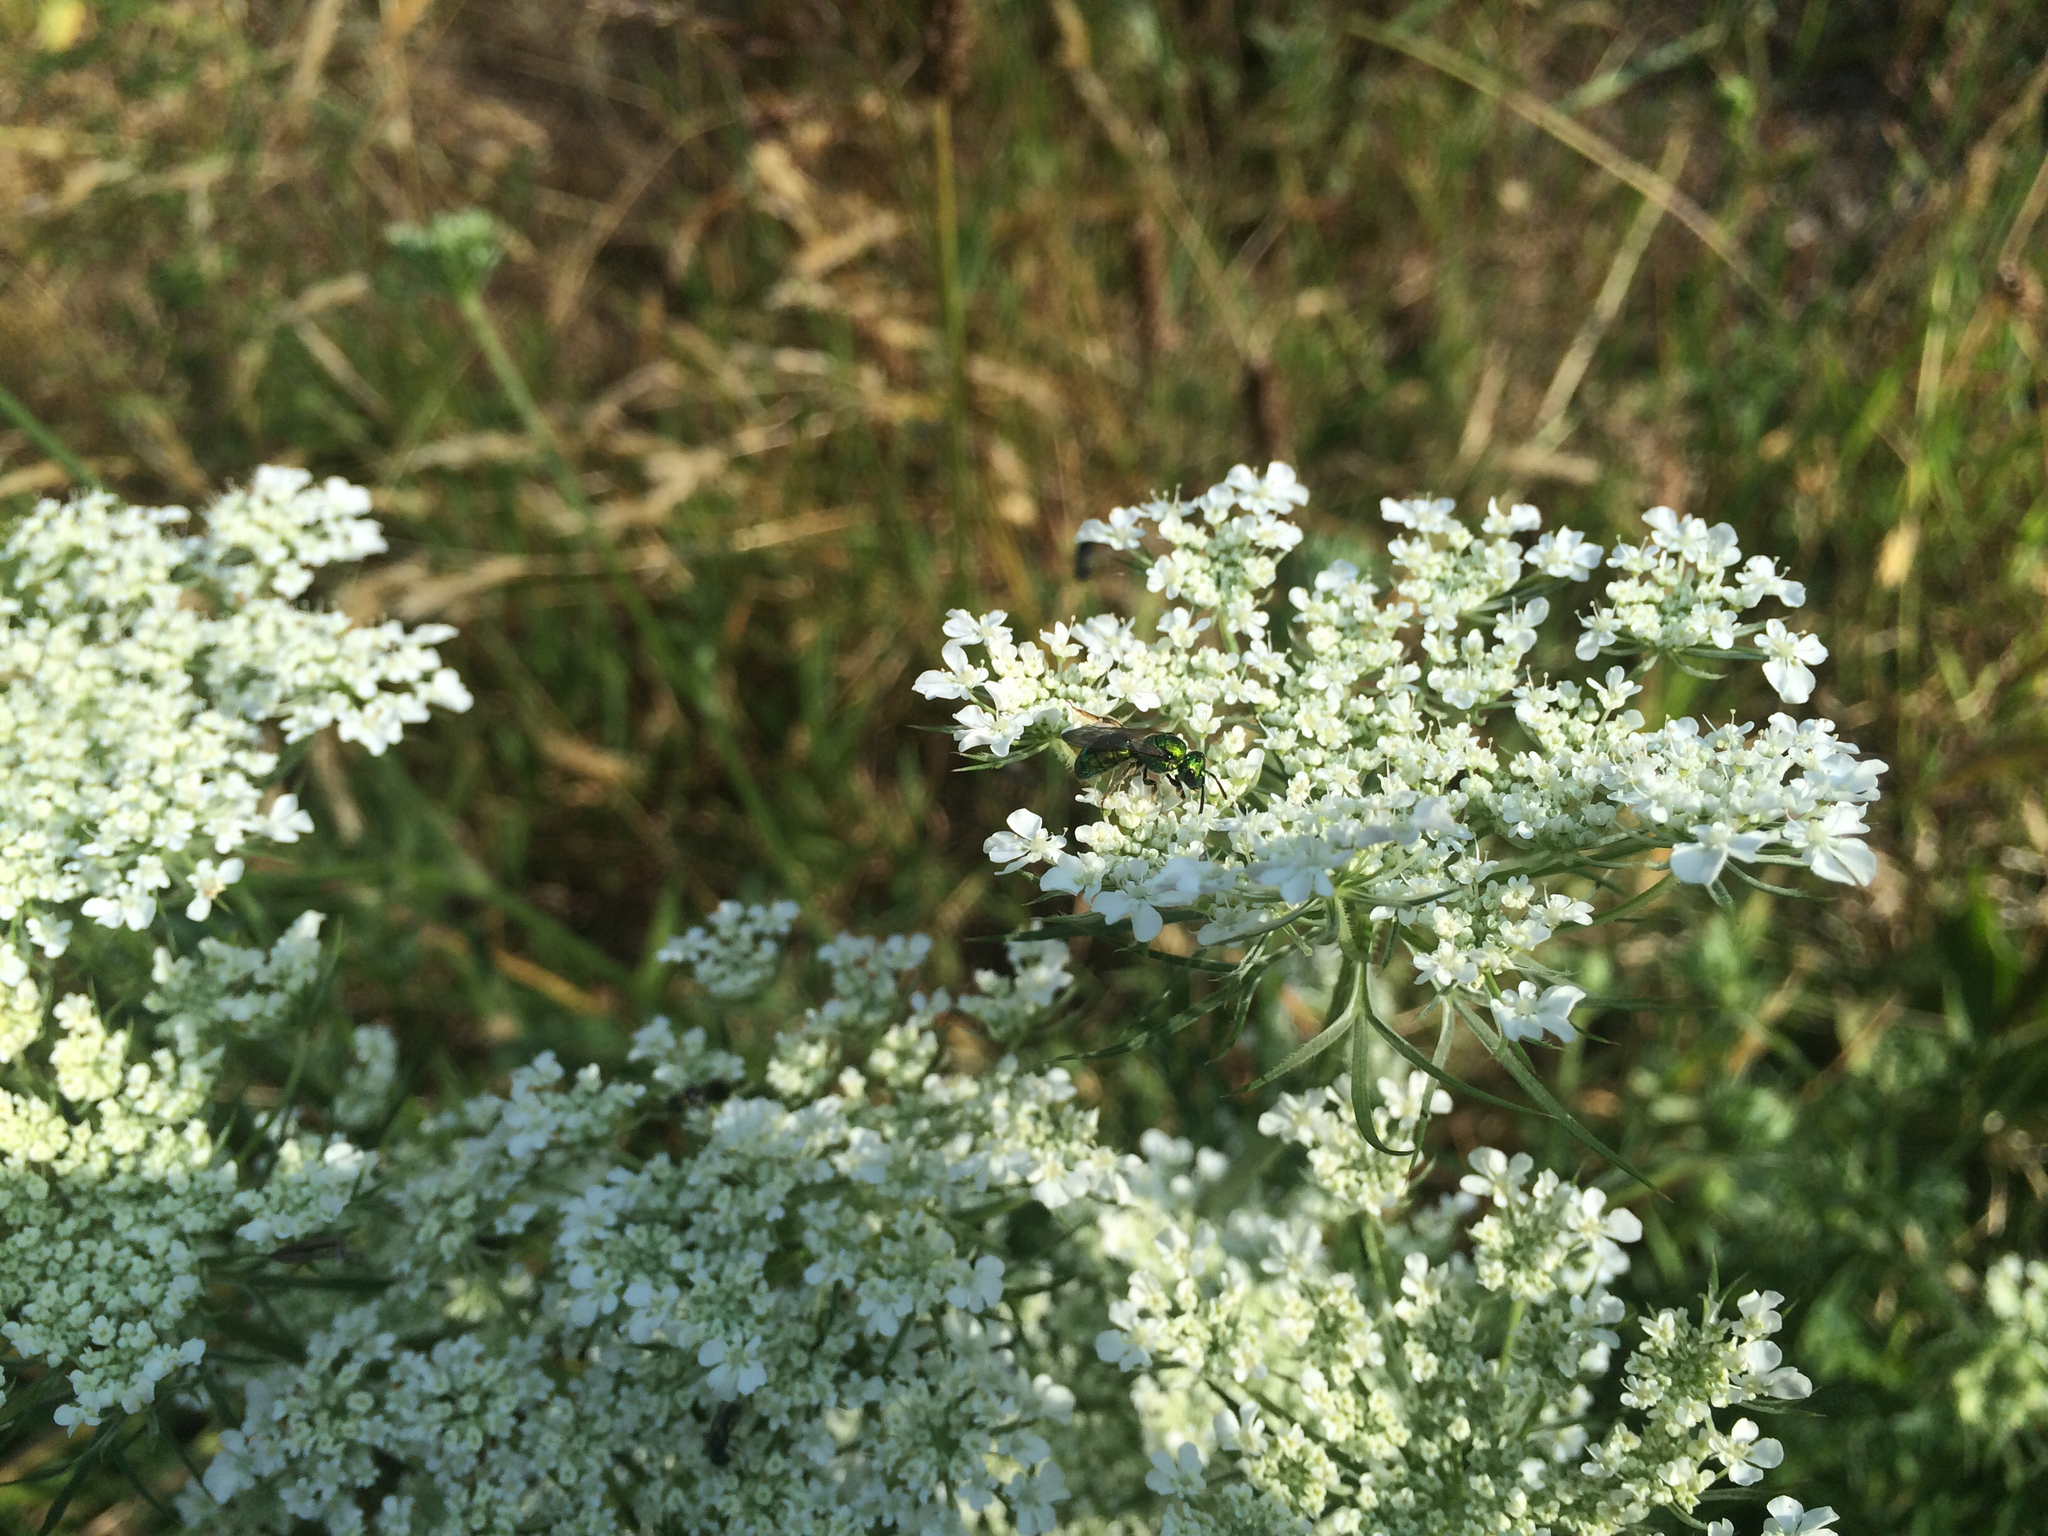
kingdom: Animalia
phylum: Arthropoda
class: Insecta
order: Hymenoptera
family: Halictidae
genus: Augochlora
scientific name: Augochlora pura
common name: Pure green sweat bee
